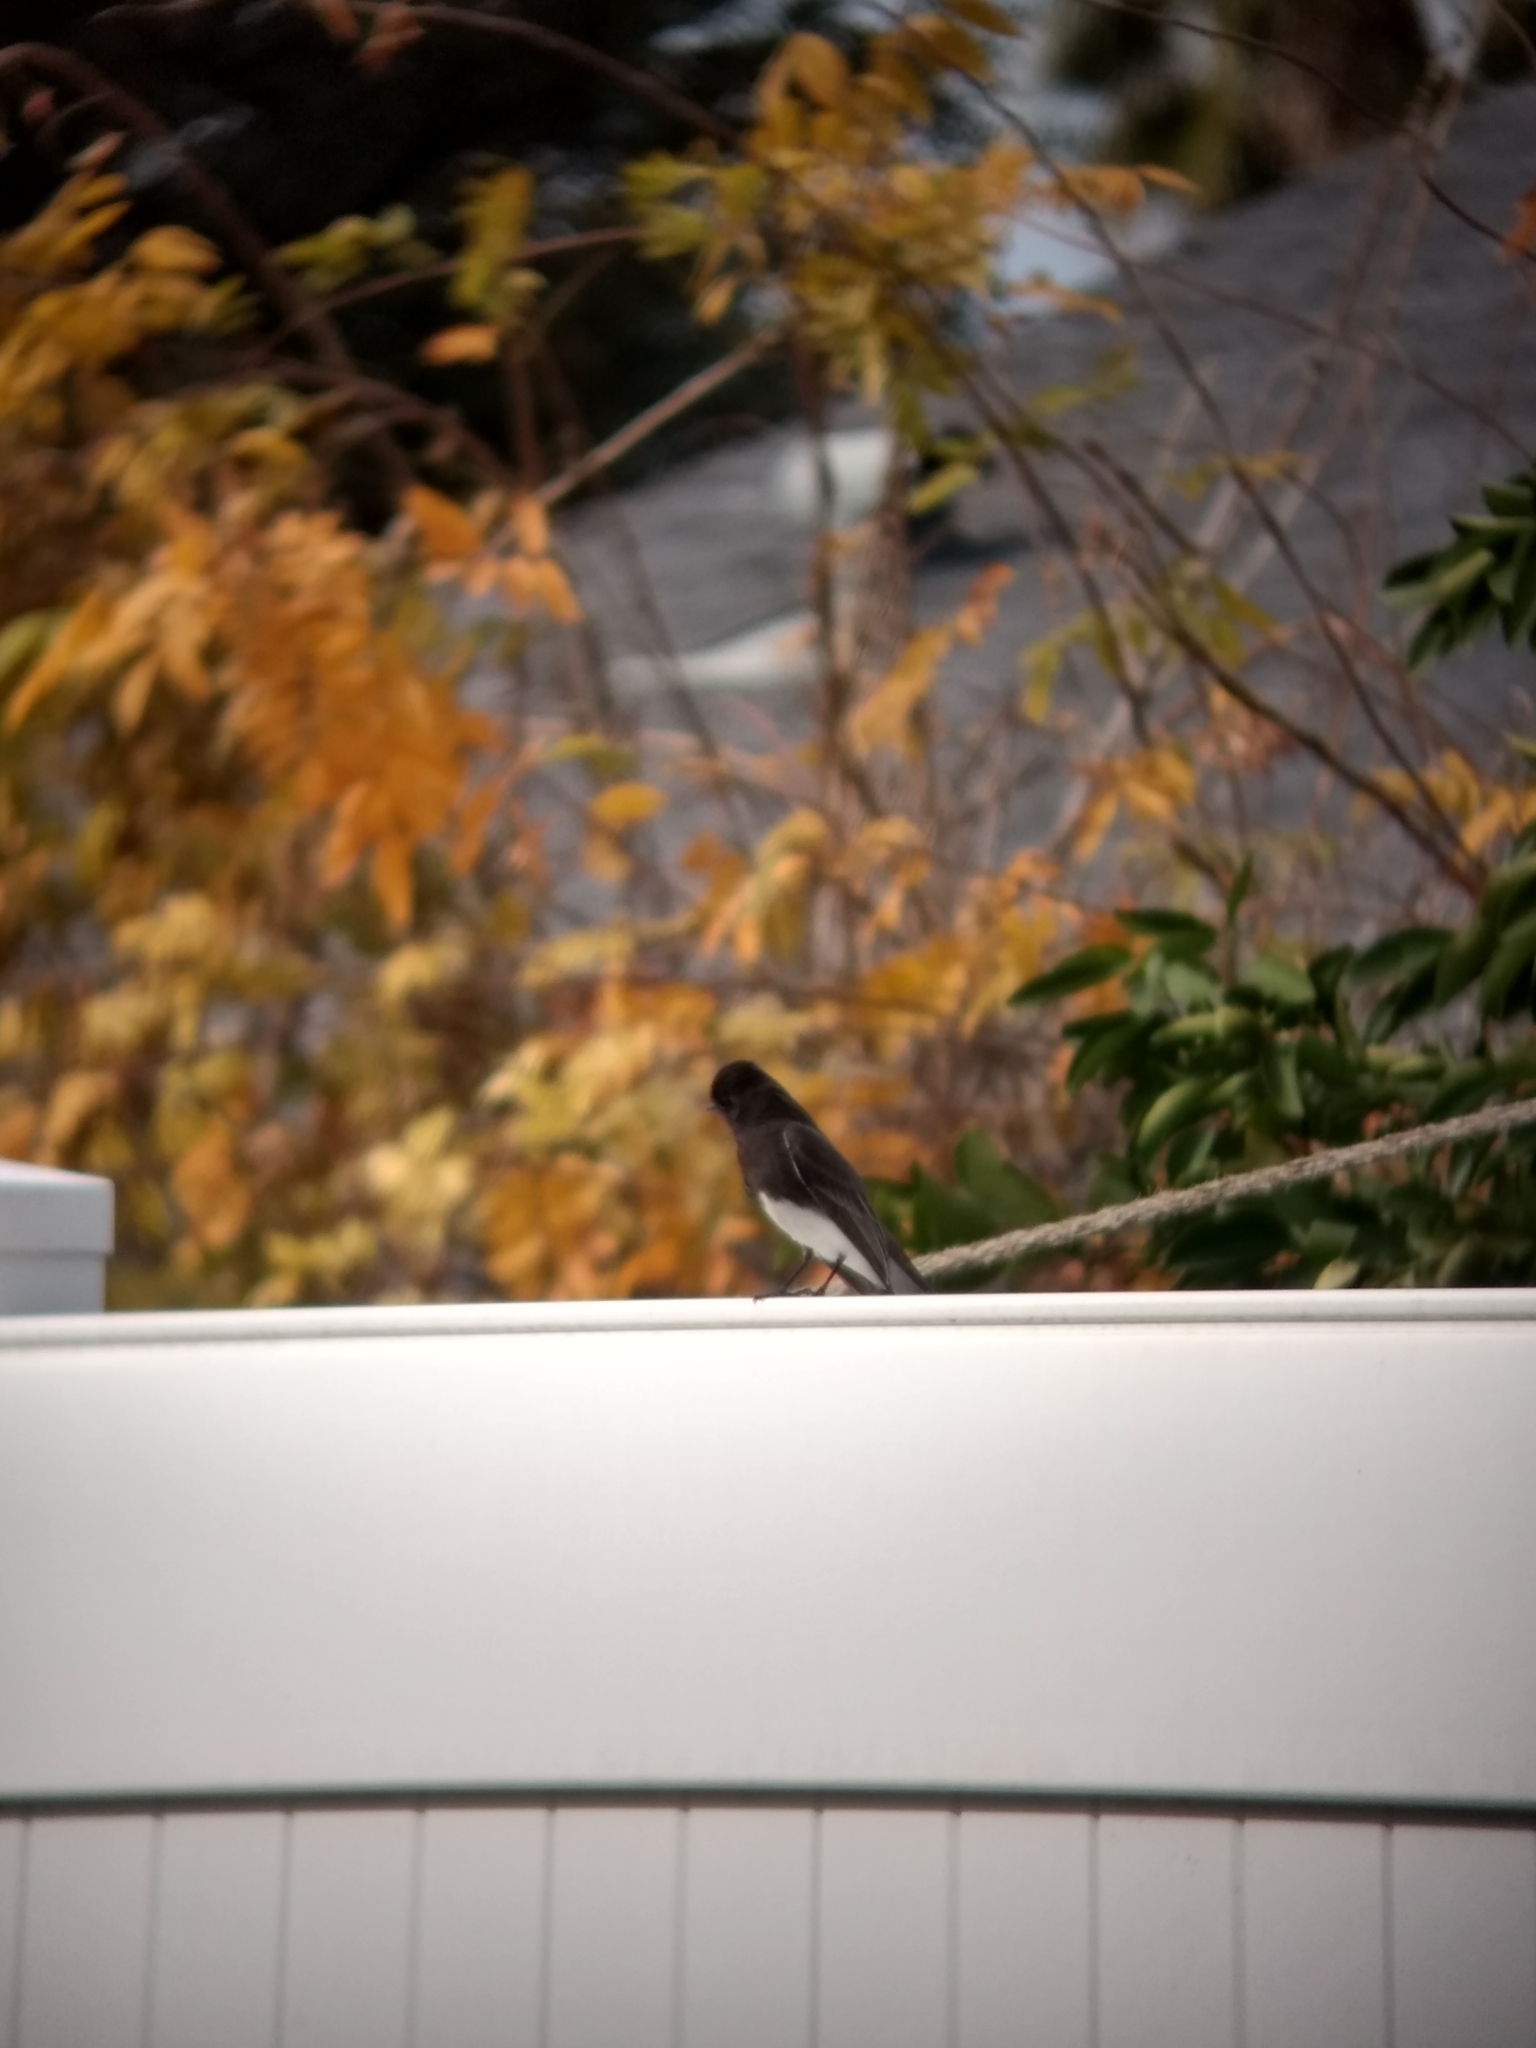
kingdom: Animalia
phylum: Chordata
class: Aves
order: Passeriformes
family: Tyrannidae
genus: Sayornis
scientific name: Sayornis nigricans
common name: Black phoebe
